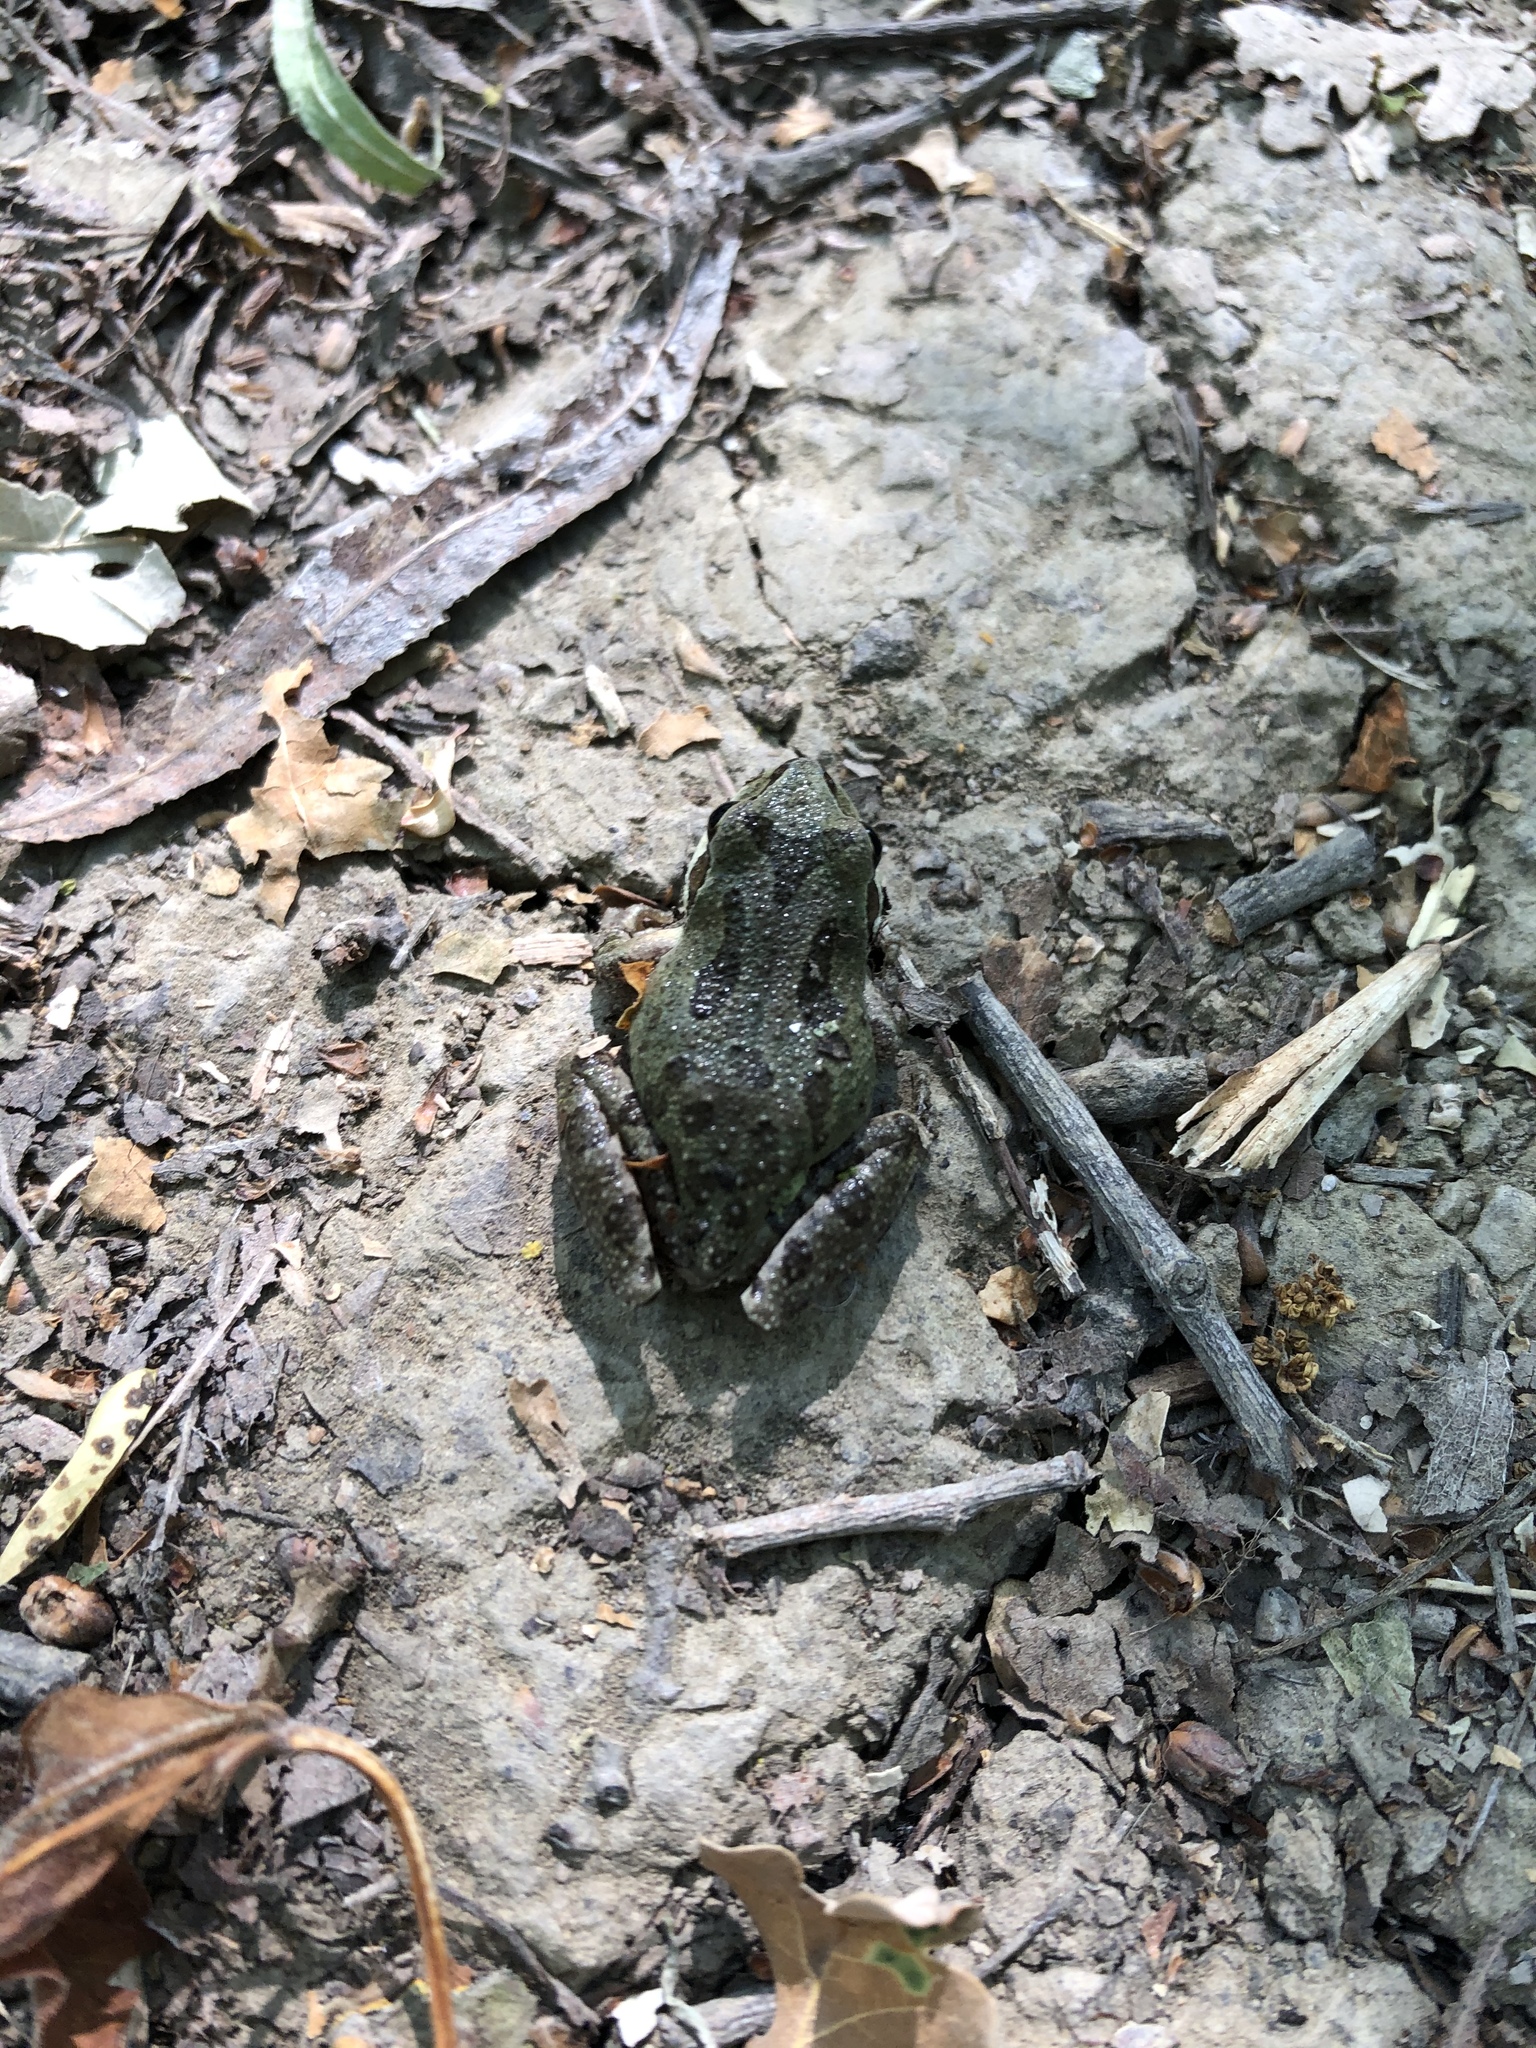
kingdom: Animalia
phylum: Chordata
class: Amphibia
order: Anura
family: Hylidae
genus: Pseudacris
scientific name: Pseudacris regilla
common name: Pacific chorus frog
